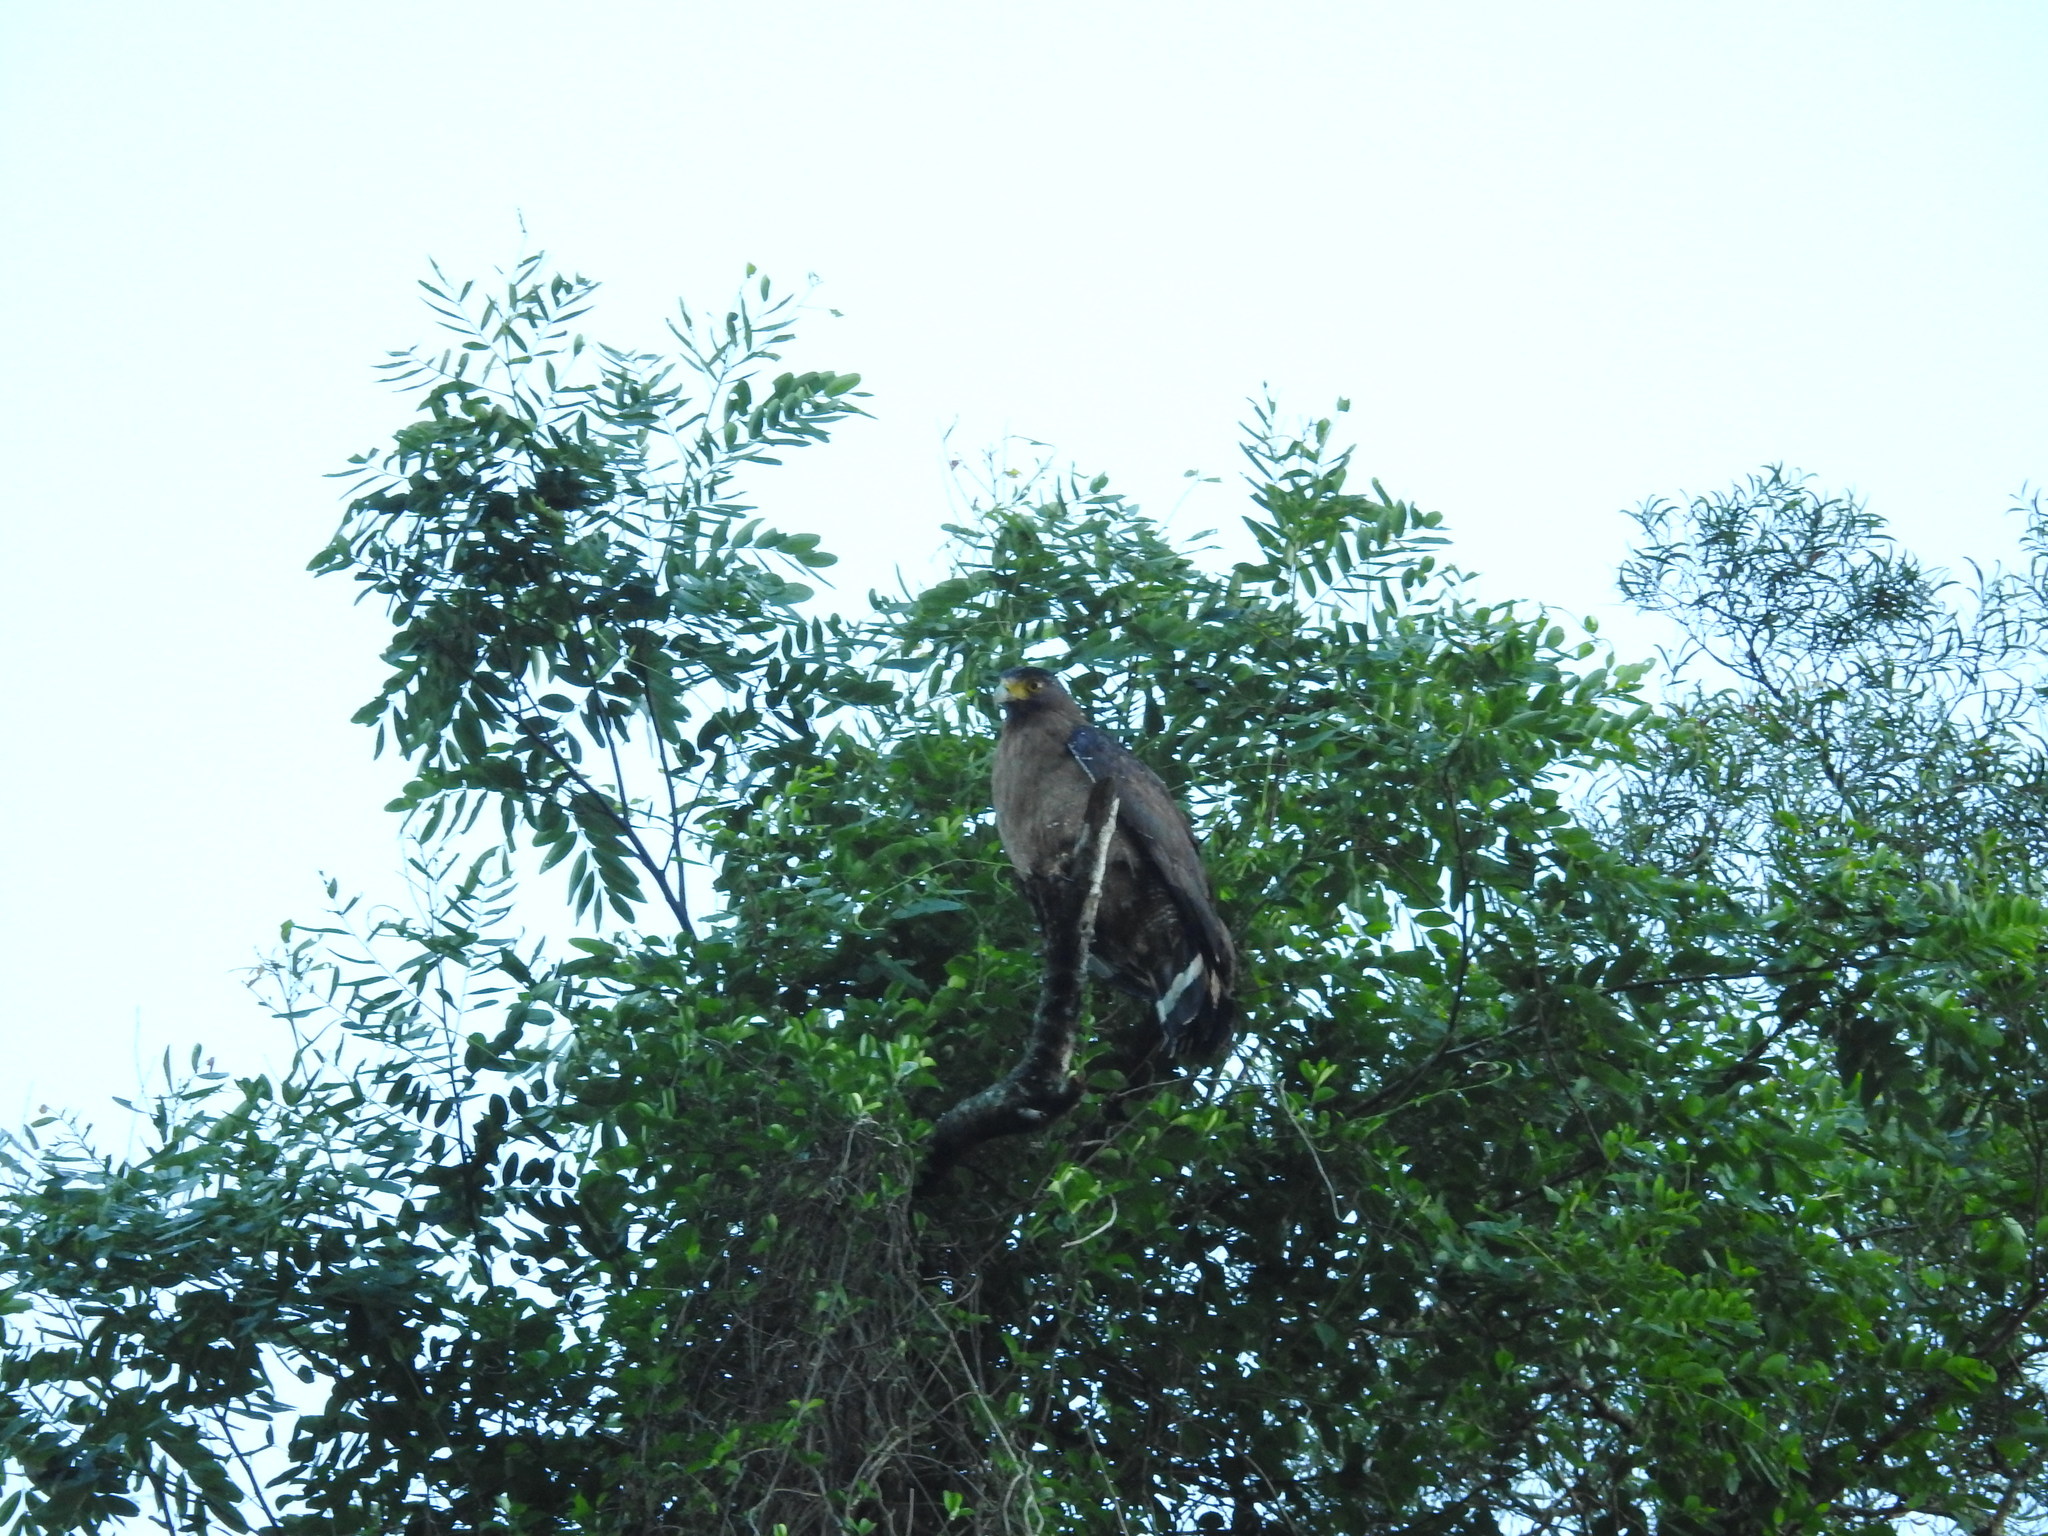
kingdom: Animalia
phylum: Chordata
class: Aves
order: Accipitriformes
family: Accipitridae
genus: Spilornis
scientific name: Spilornis cheela
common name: Crested serpent eagle
